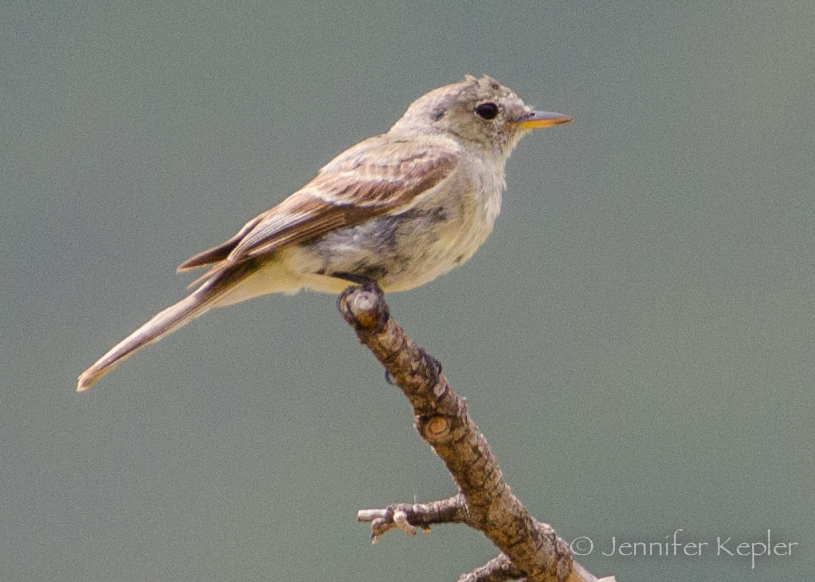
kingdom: Animalia
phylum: Chordata
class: Aves
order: Passeriformes
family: Tyrannidae
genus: Empidonax
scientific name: Empidonax wrightii
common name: Gray flycatcher
